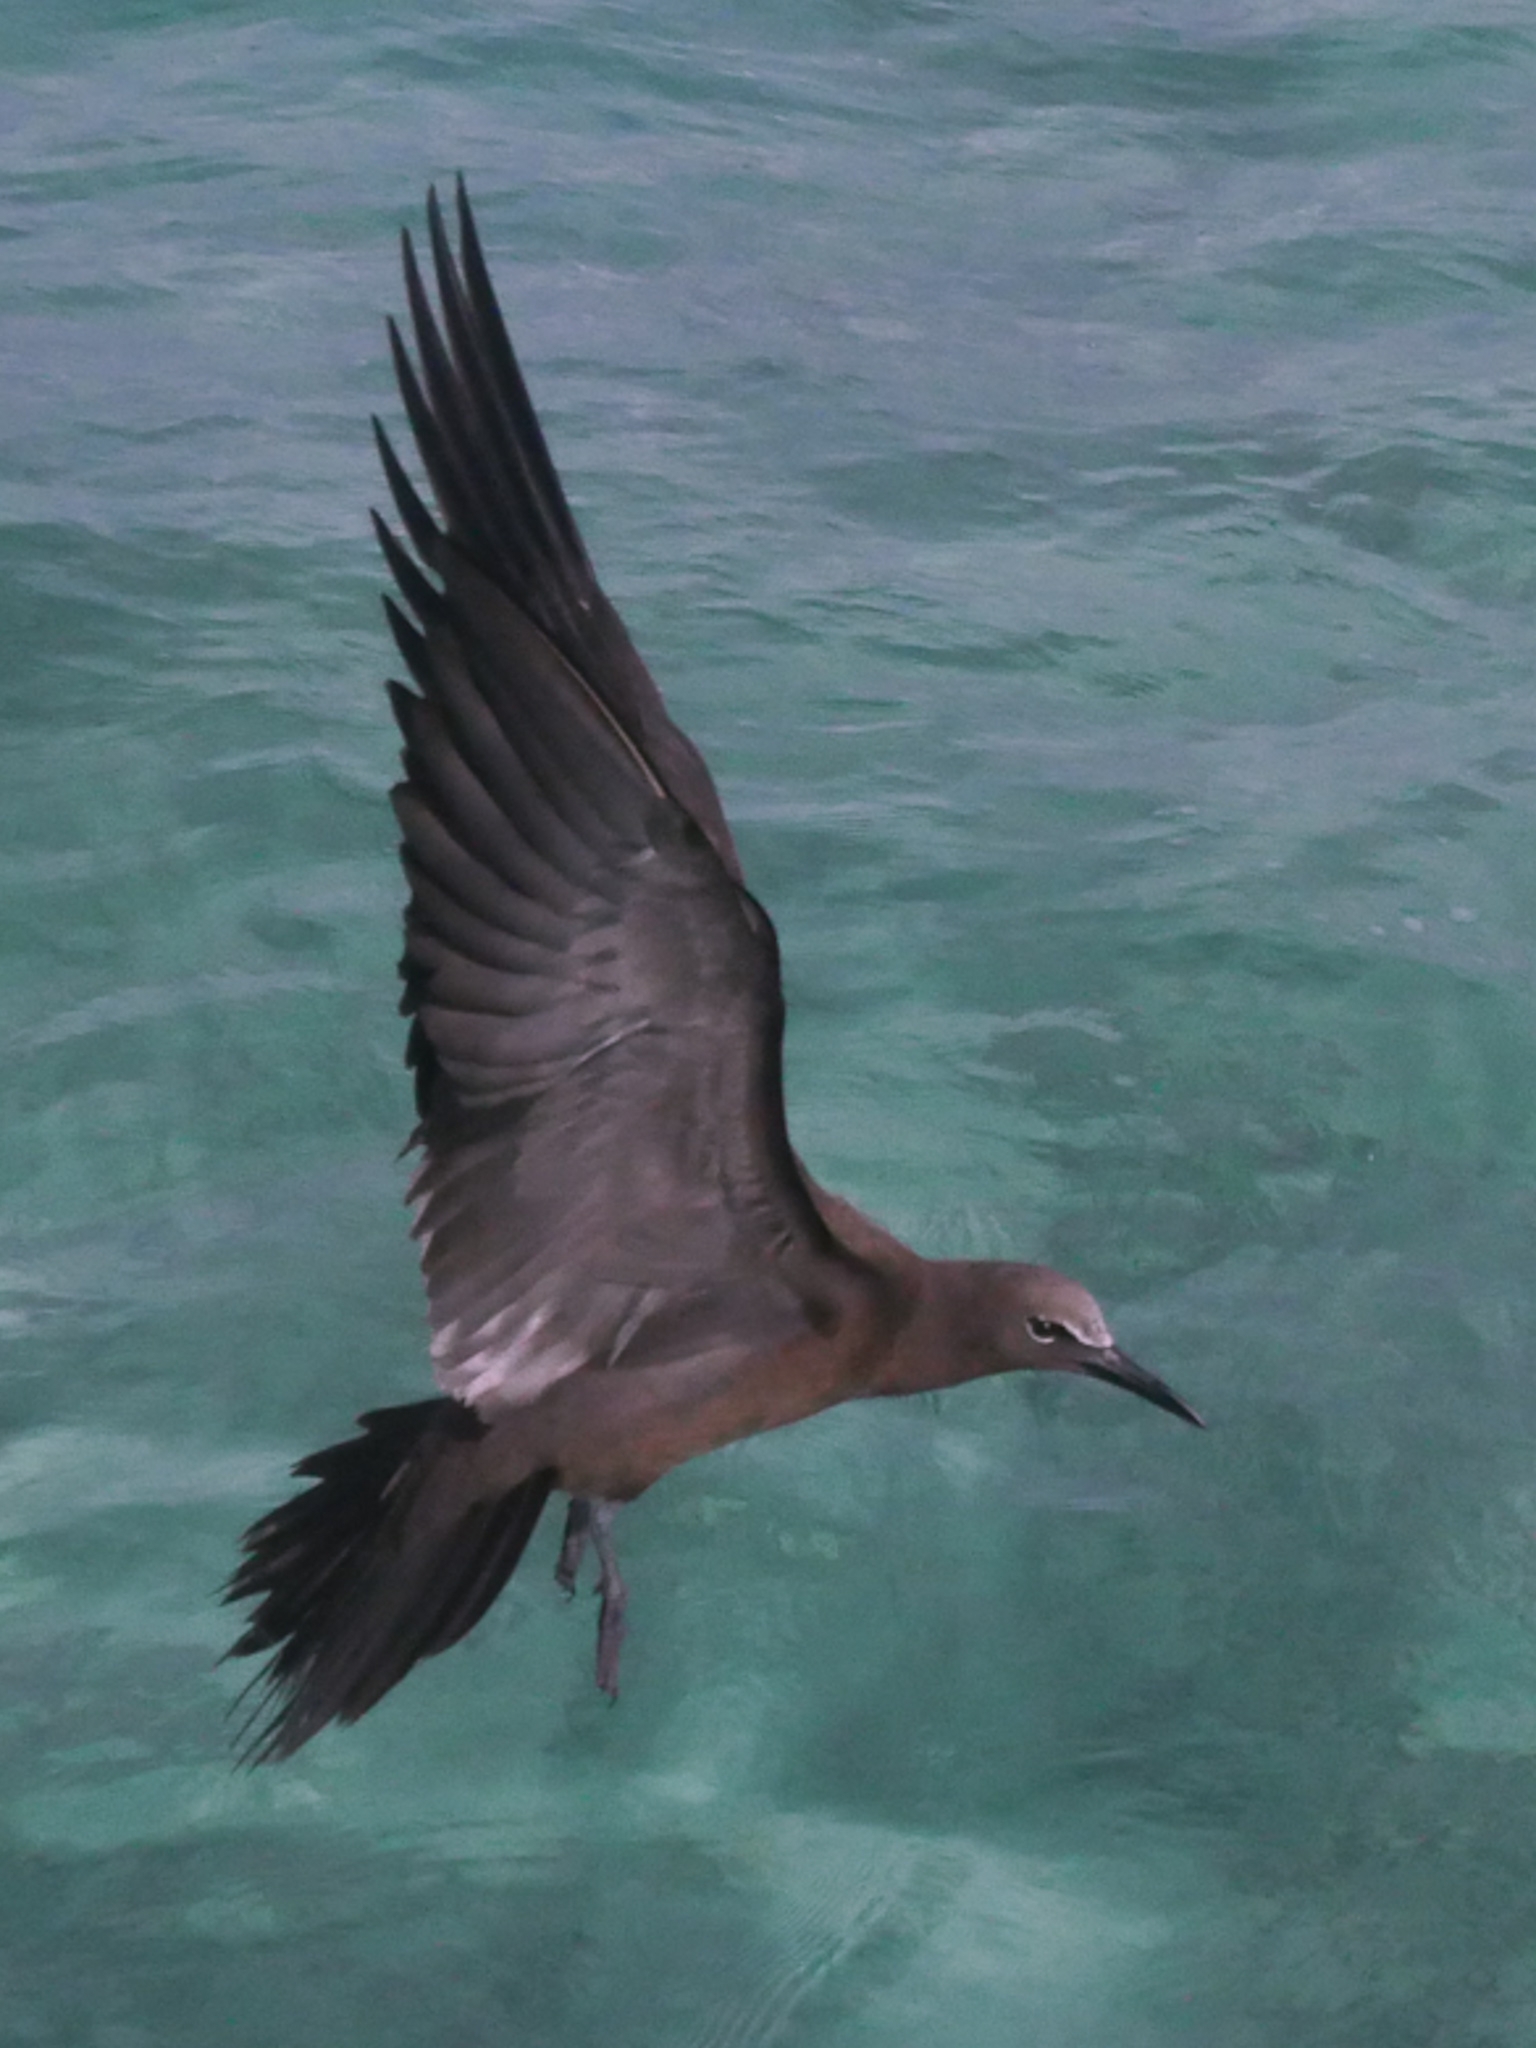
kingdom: Animalia
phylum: Chordata
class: Aves
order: Charadriiformes
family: Laridae
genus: Anous
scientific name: Anous stolidus
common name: Brown noddy
